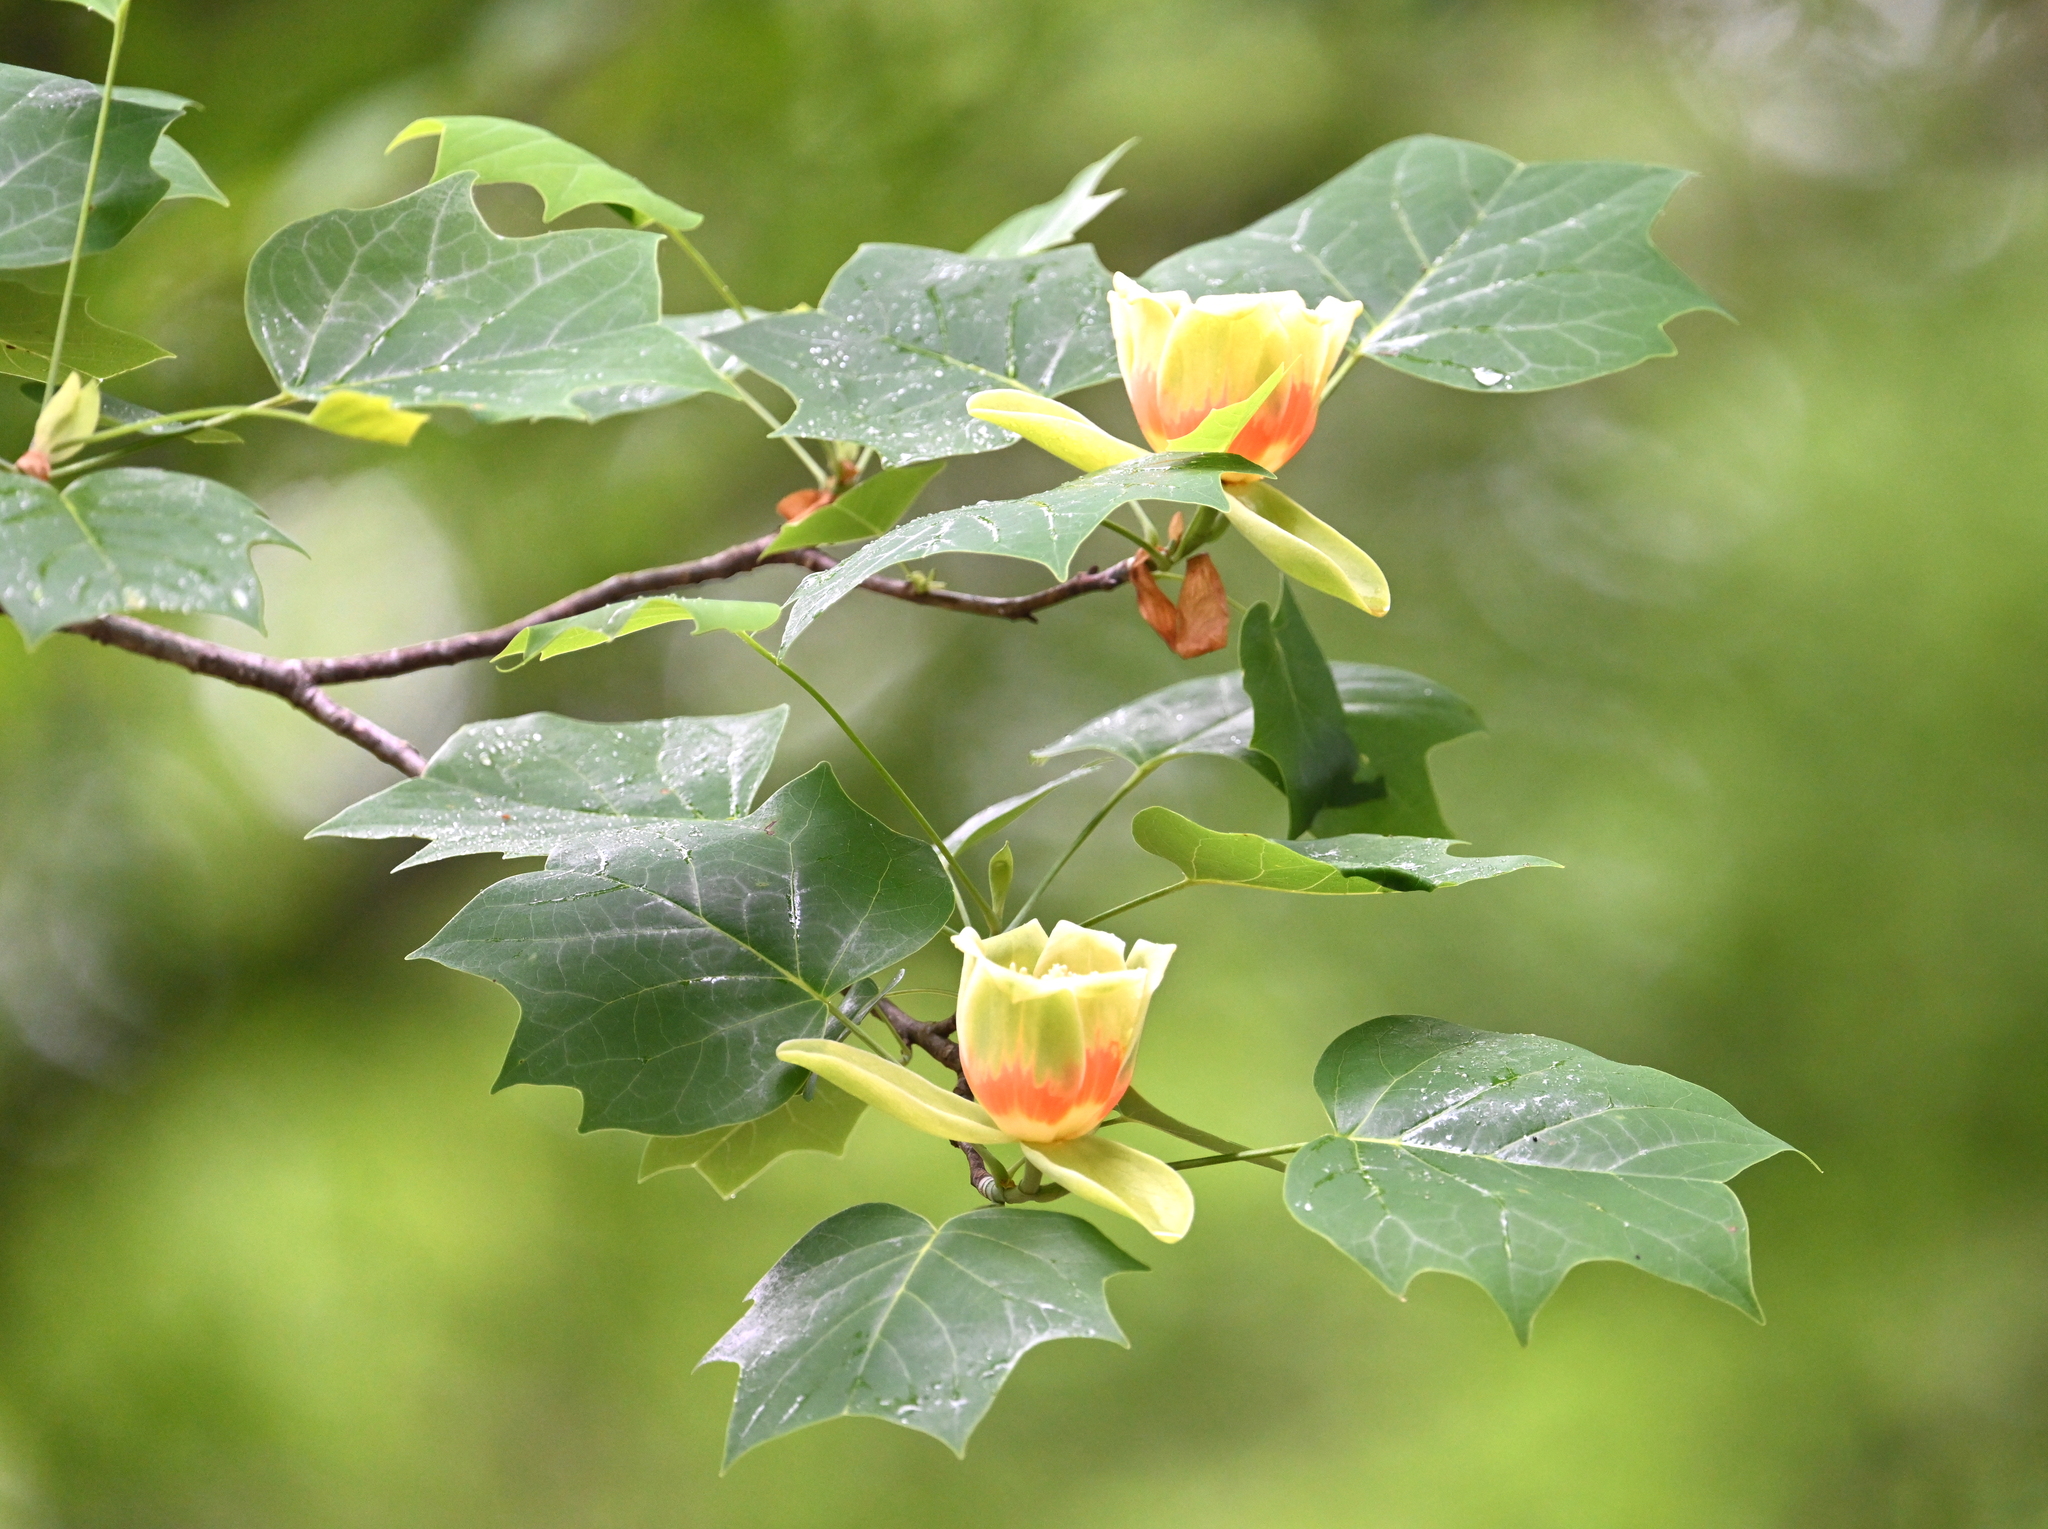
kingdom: Plantae
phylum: Tracheophyta
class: Magnoliopsida
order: Magnoliales
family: Magnoliaceae
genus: Liriodendron
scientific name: Liriodendron tulipifera
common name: Tulip tree
